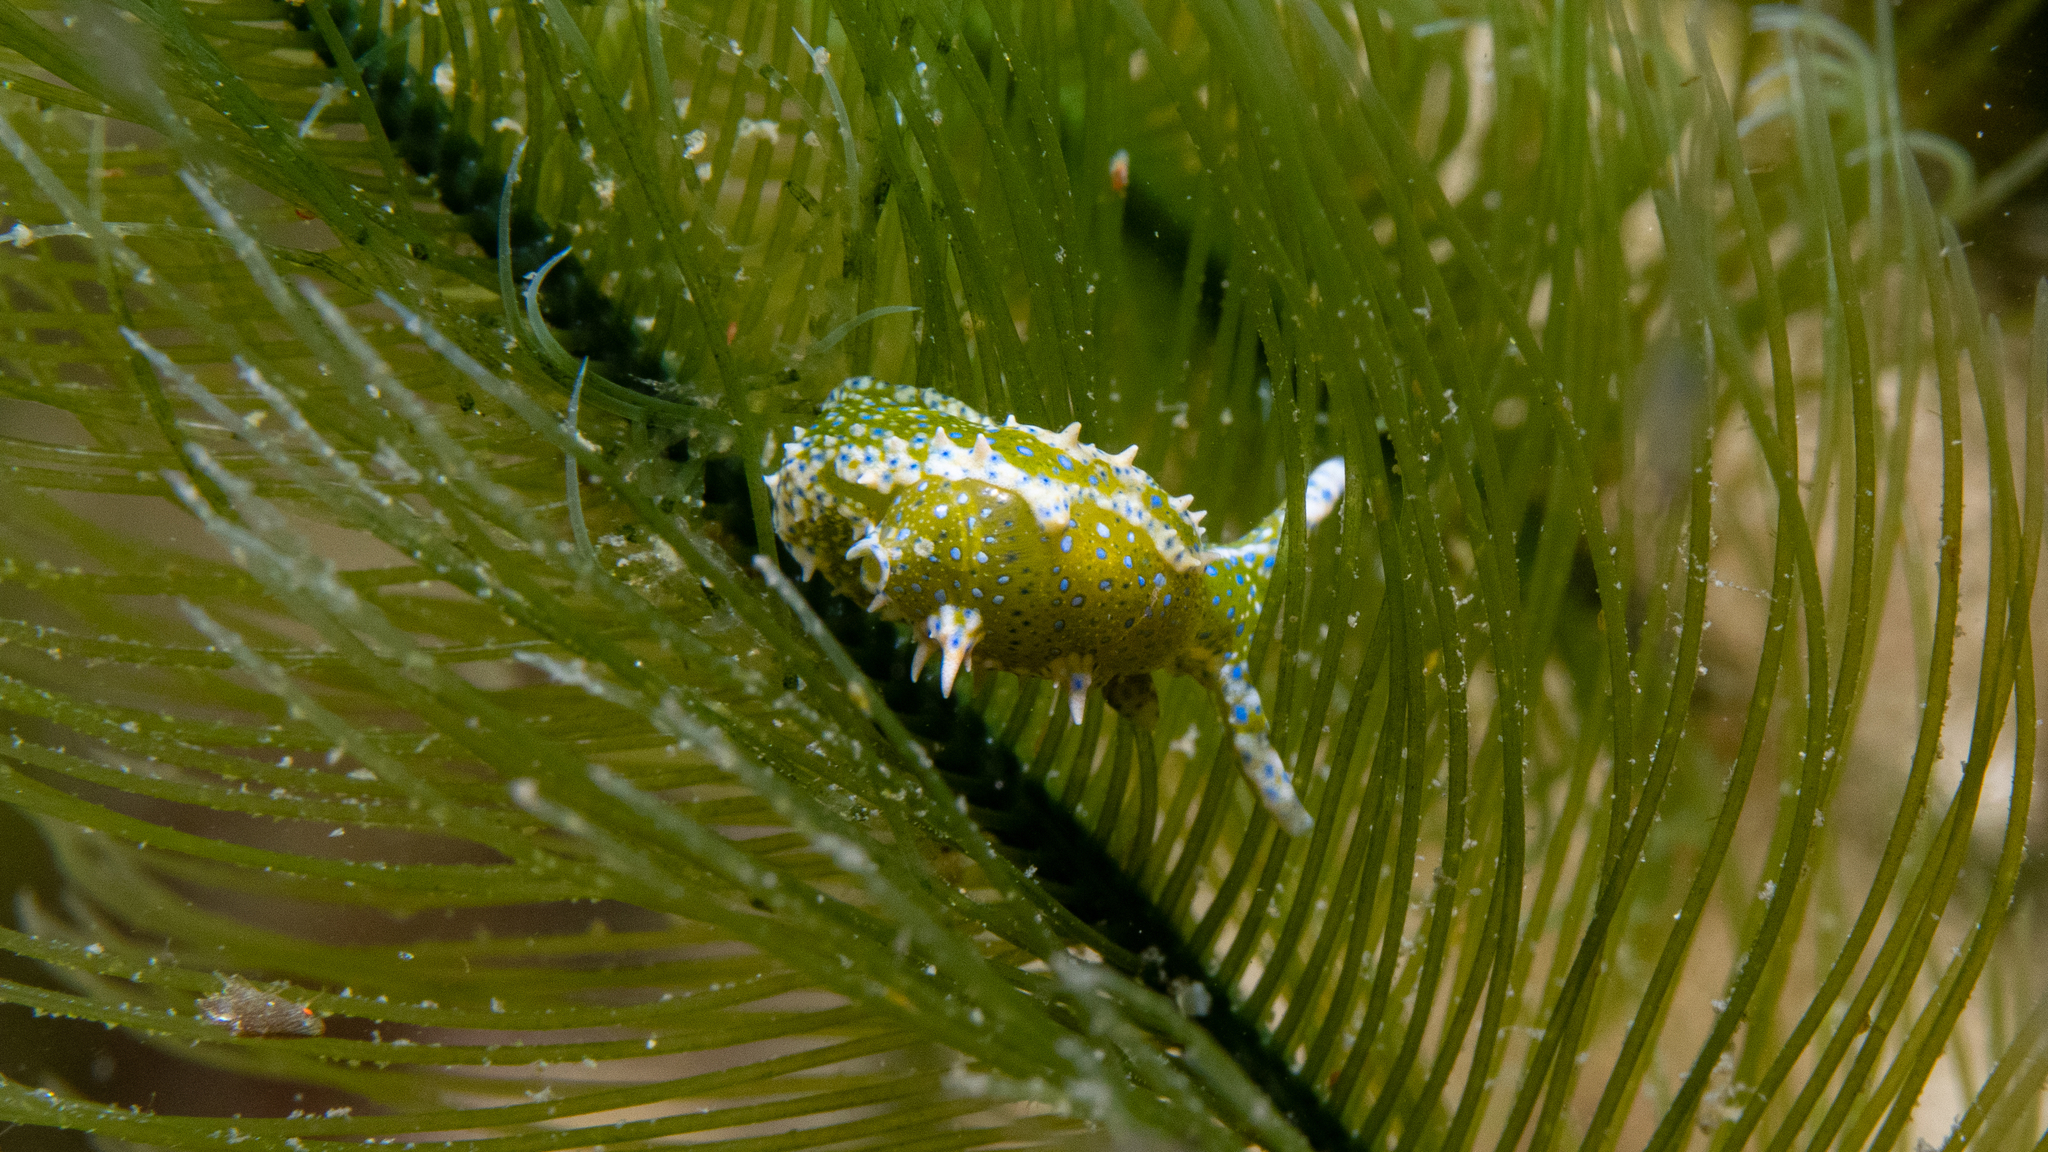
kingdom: Animalia
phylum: Mollusca
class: Gastropoda
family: Oxynoidae
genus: Oxynoe
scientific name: Oxynoe viridis
